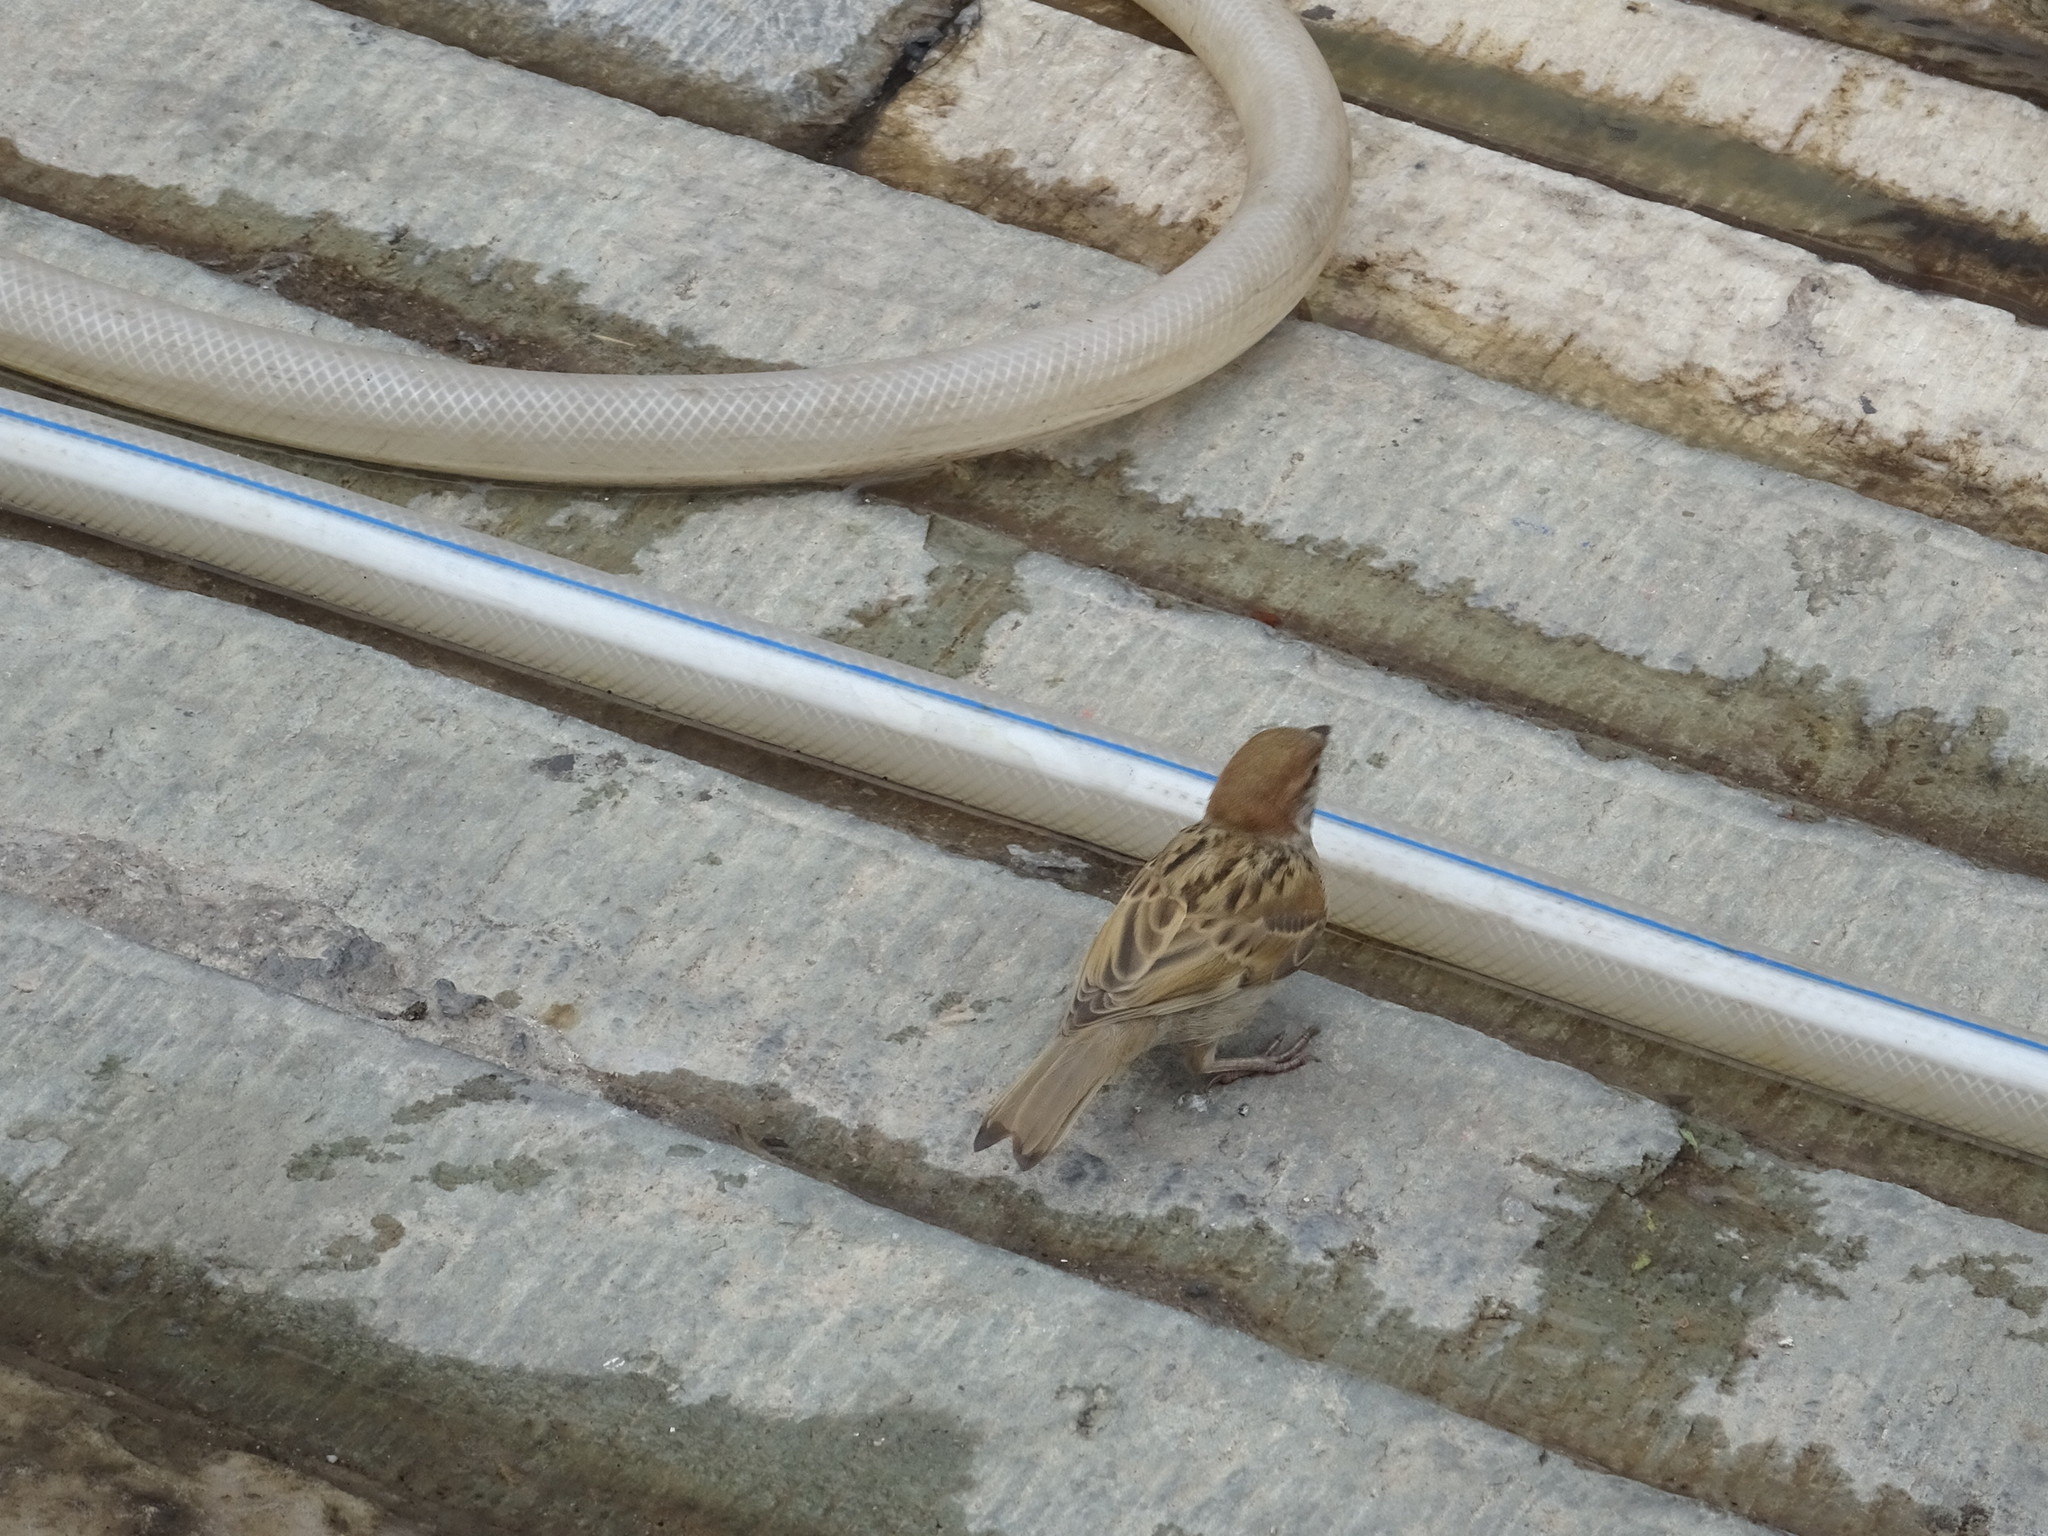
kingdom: Animalia
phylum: Chordata
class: Aves
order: Passeriformes
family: Passeridae
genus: Passer
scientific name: Passer montanus
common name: Eurasian tree sparrow
